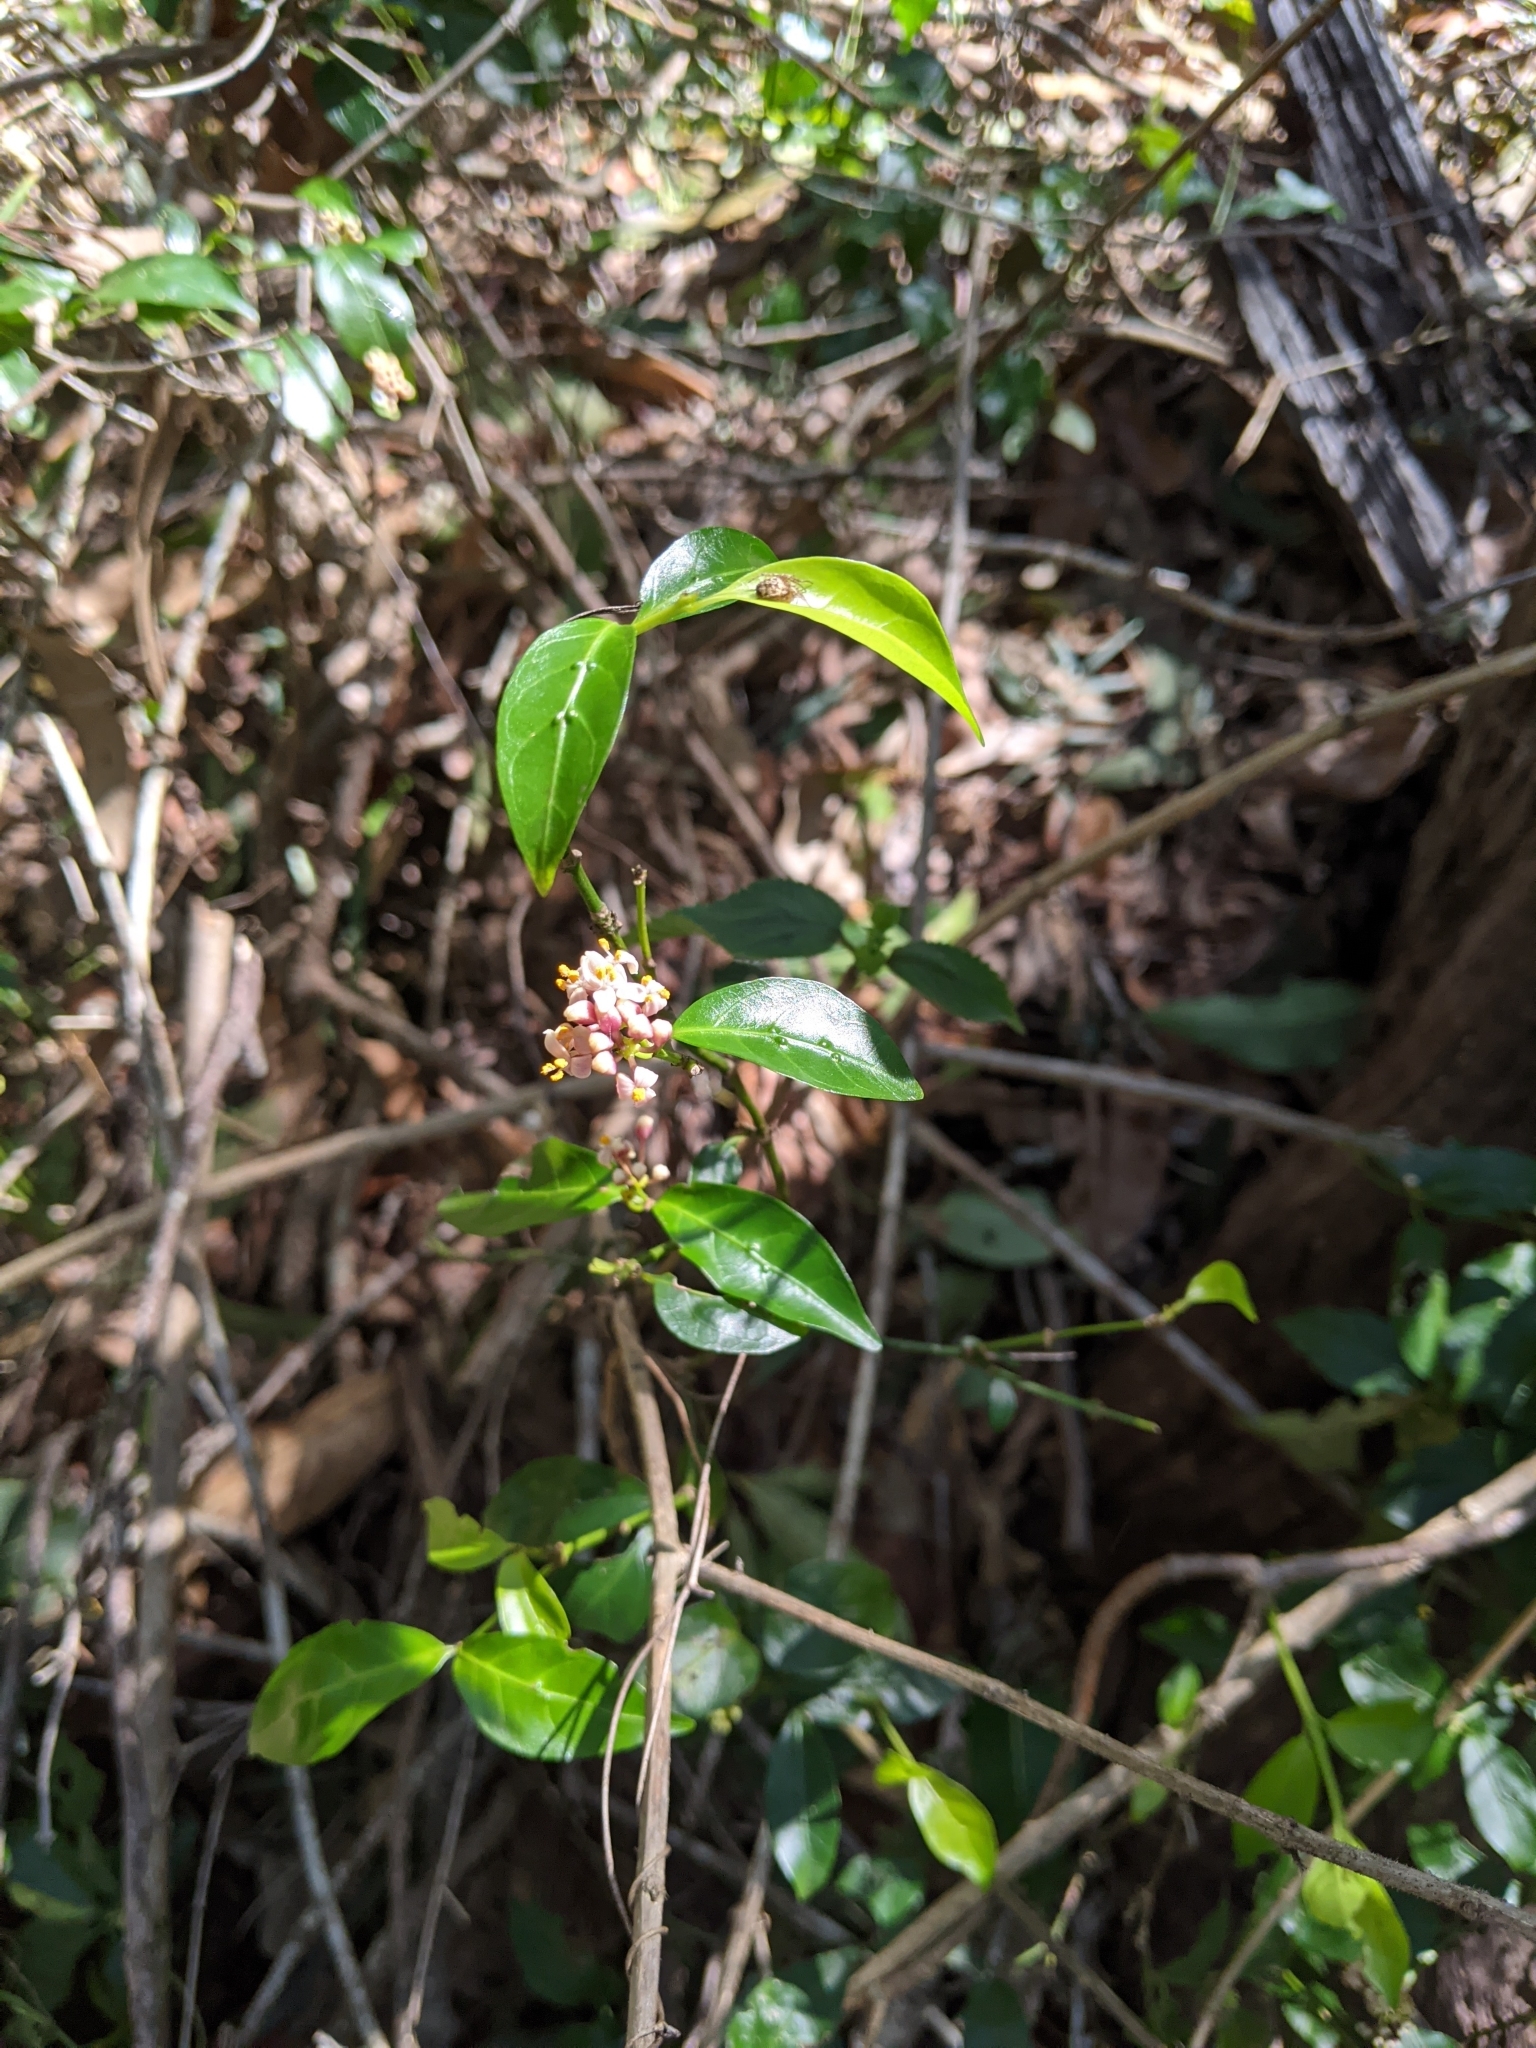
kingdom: Plantae
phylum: Tracheophyta
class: Magnoliopsida
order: Gentianales
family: Rubiaceae
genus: Gynochthodes
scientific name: Gynochthodes jasminoides
